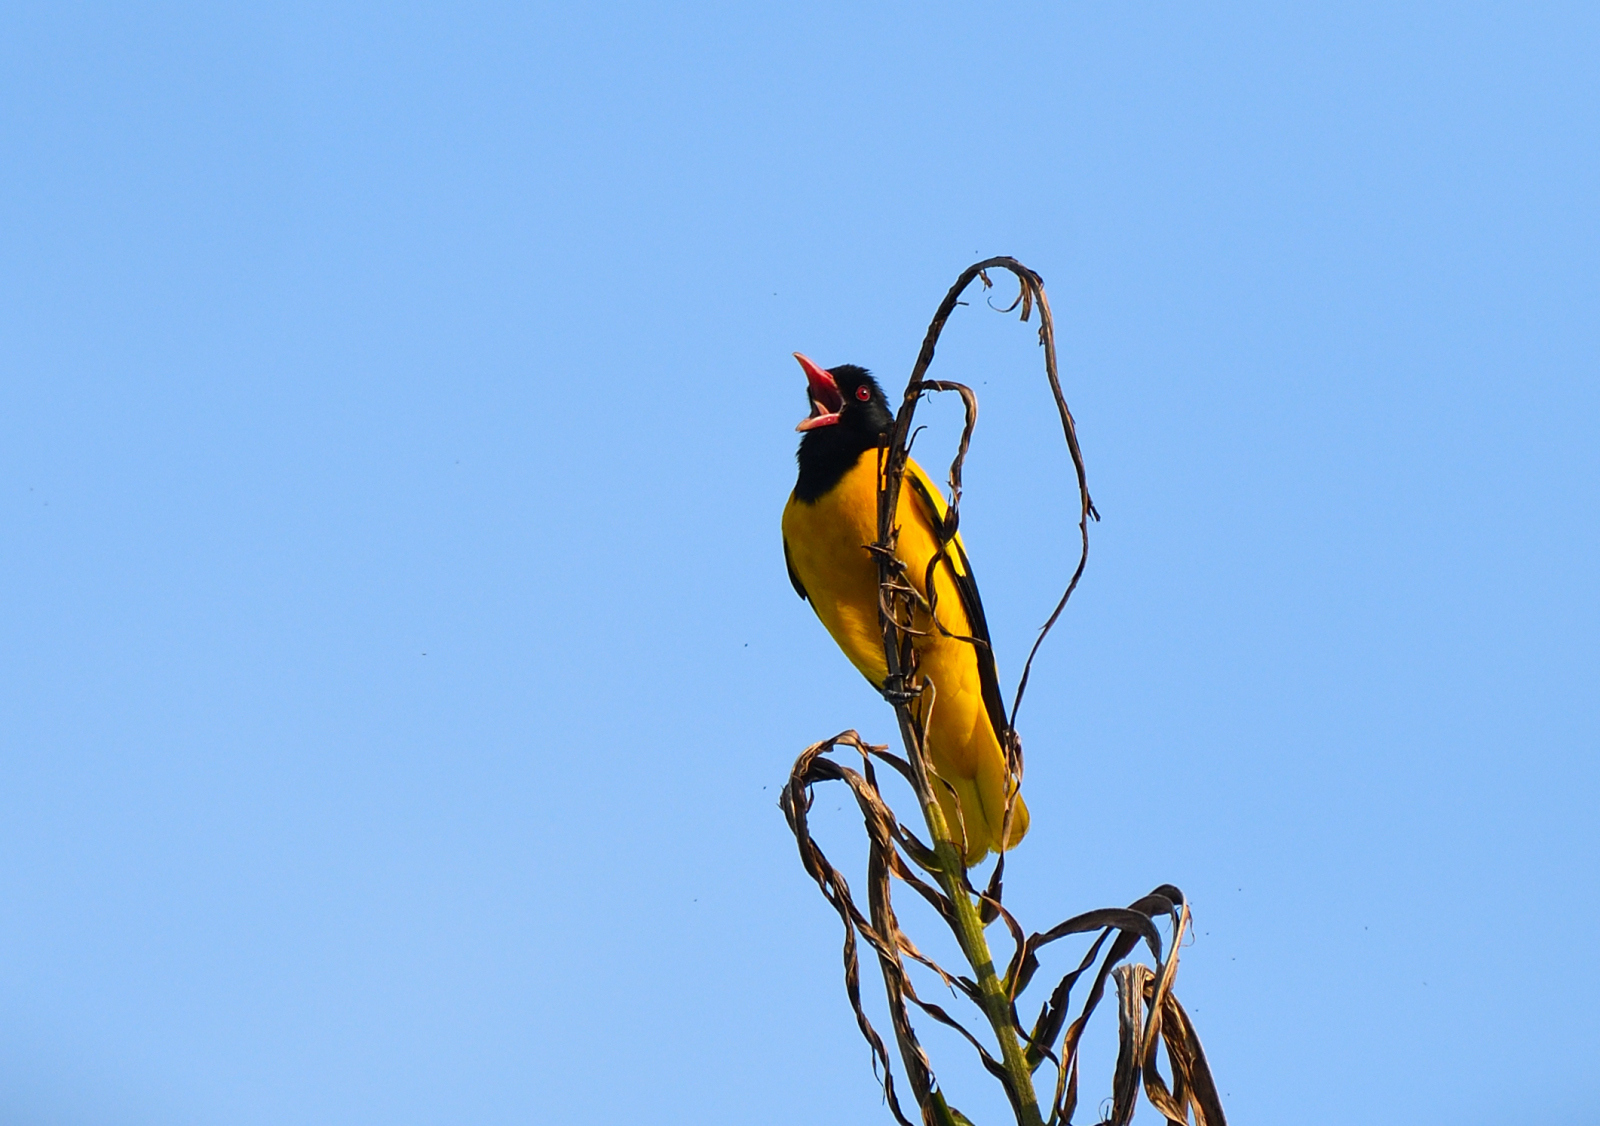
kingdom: Animalia
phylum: Chordata
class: Aves
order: Passeriformes
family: Oriolidae
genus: Oriolus
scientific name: Oriolus xanthornus
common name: Black-hooded oriole
